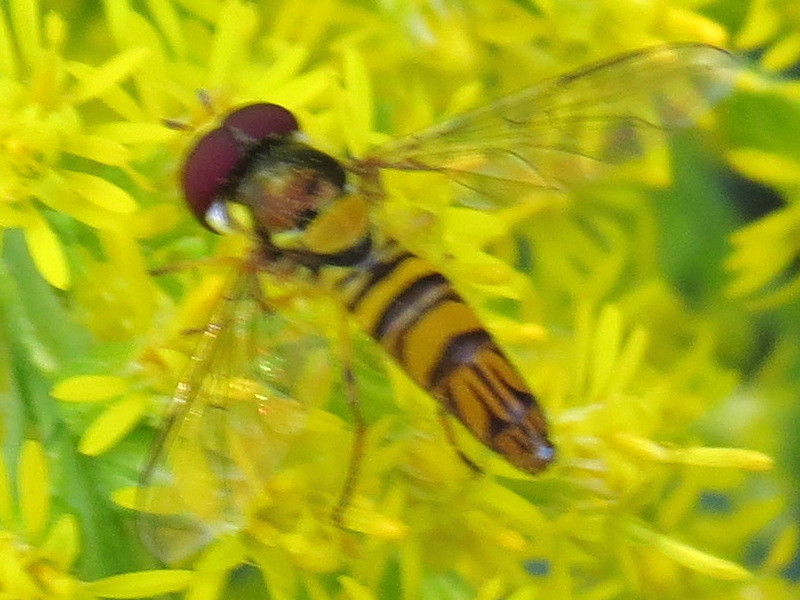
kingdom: Animalia
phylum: Arthropoda
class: Insecta
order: Diptera
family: Syrphidae
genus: Allograpta
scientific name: Allograpta obliqua
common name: Common oblique syrphid
